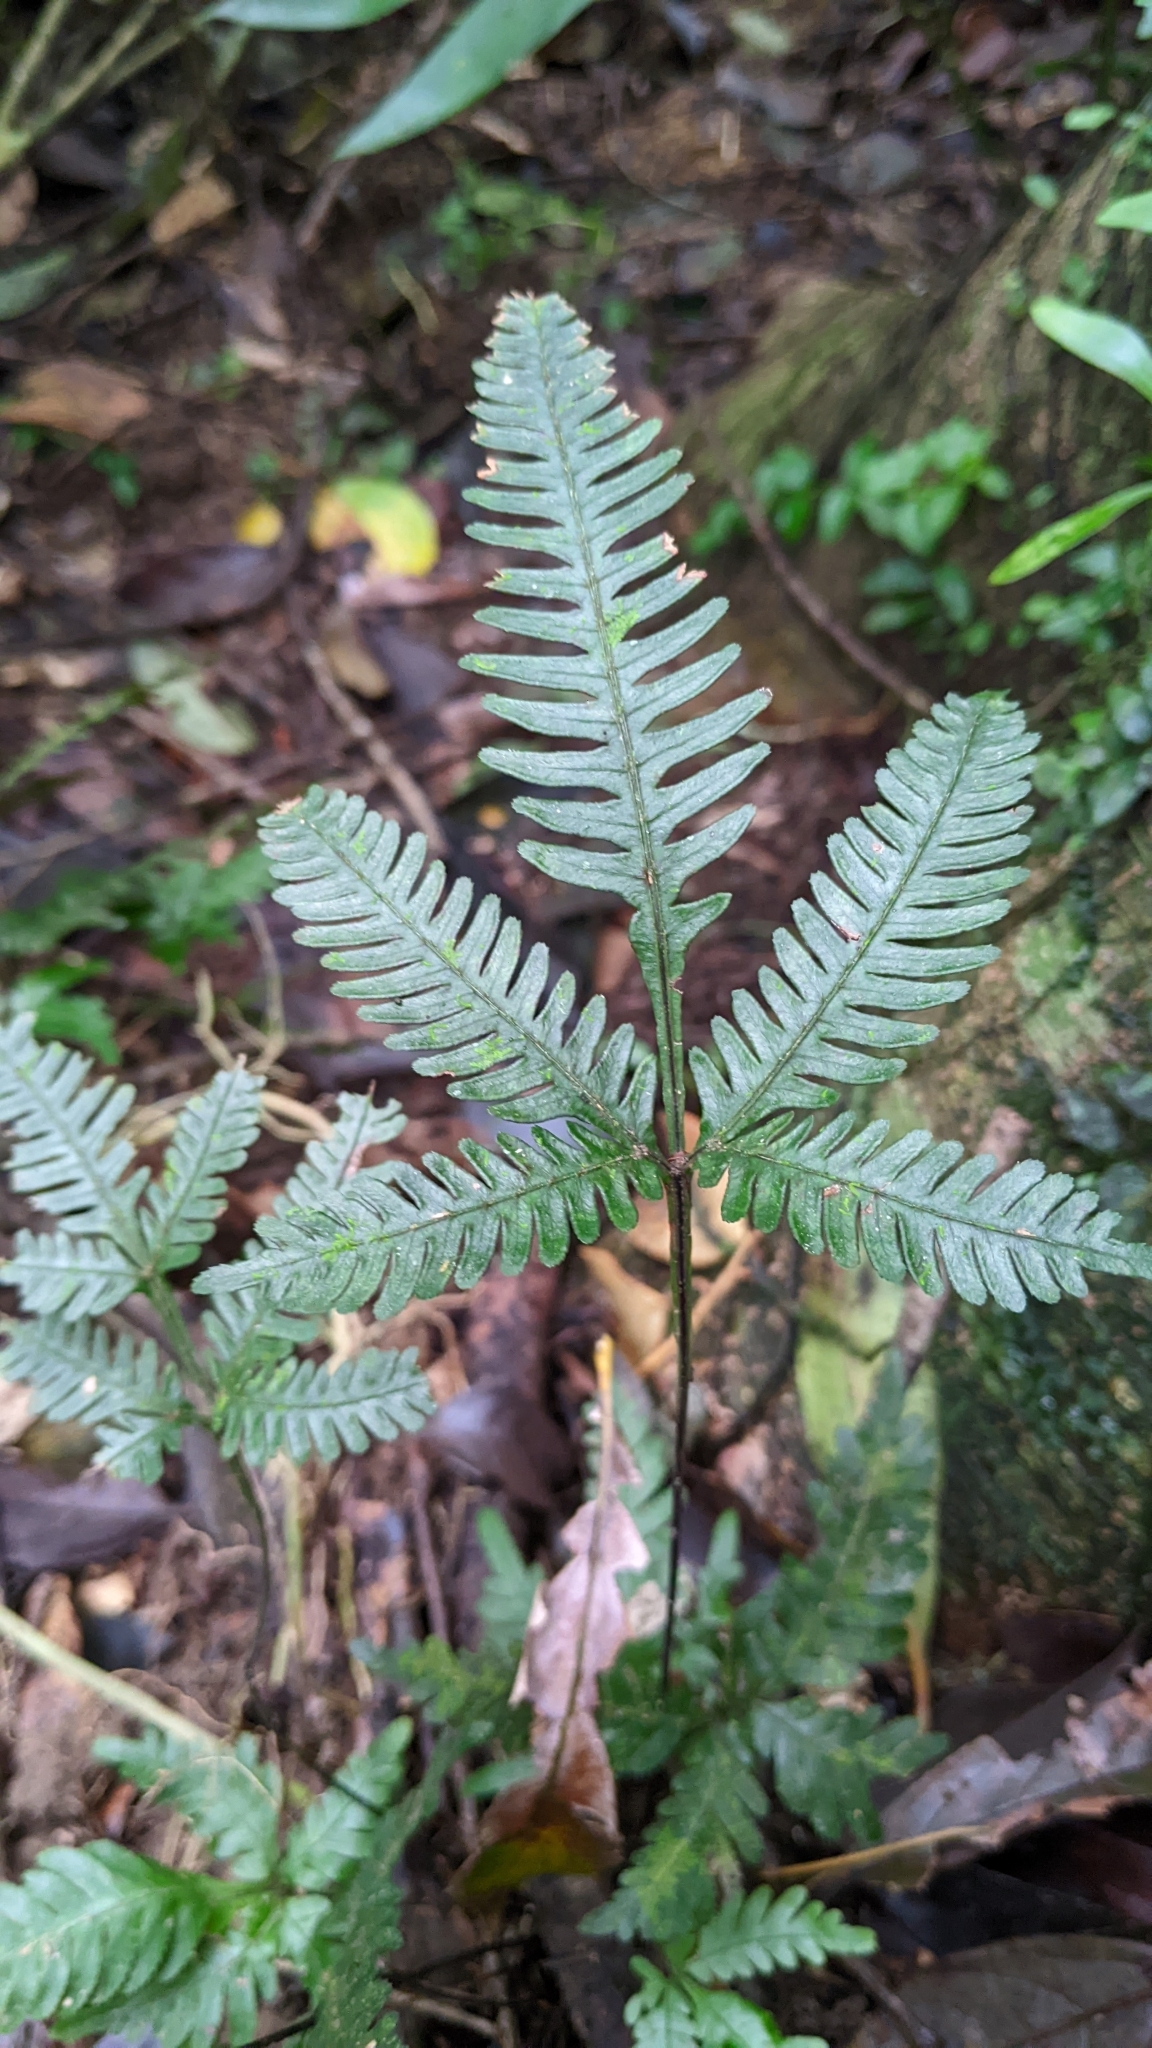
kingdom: Plantae
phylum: Tracheophyta
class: Polypodiopsida
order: Polypodiales
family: Pteridaceae
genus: Pteris
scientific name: Pteris grevilleana
